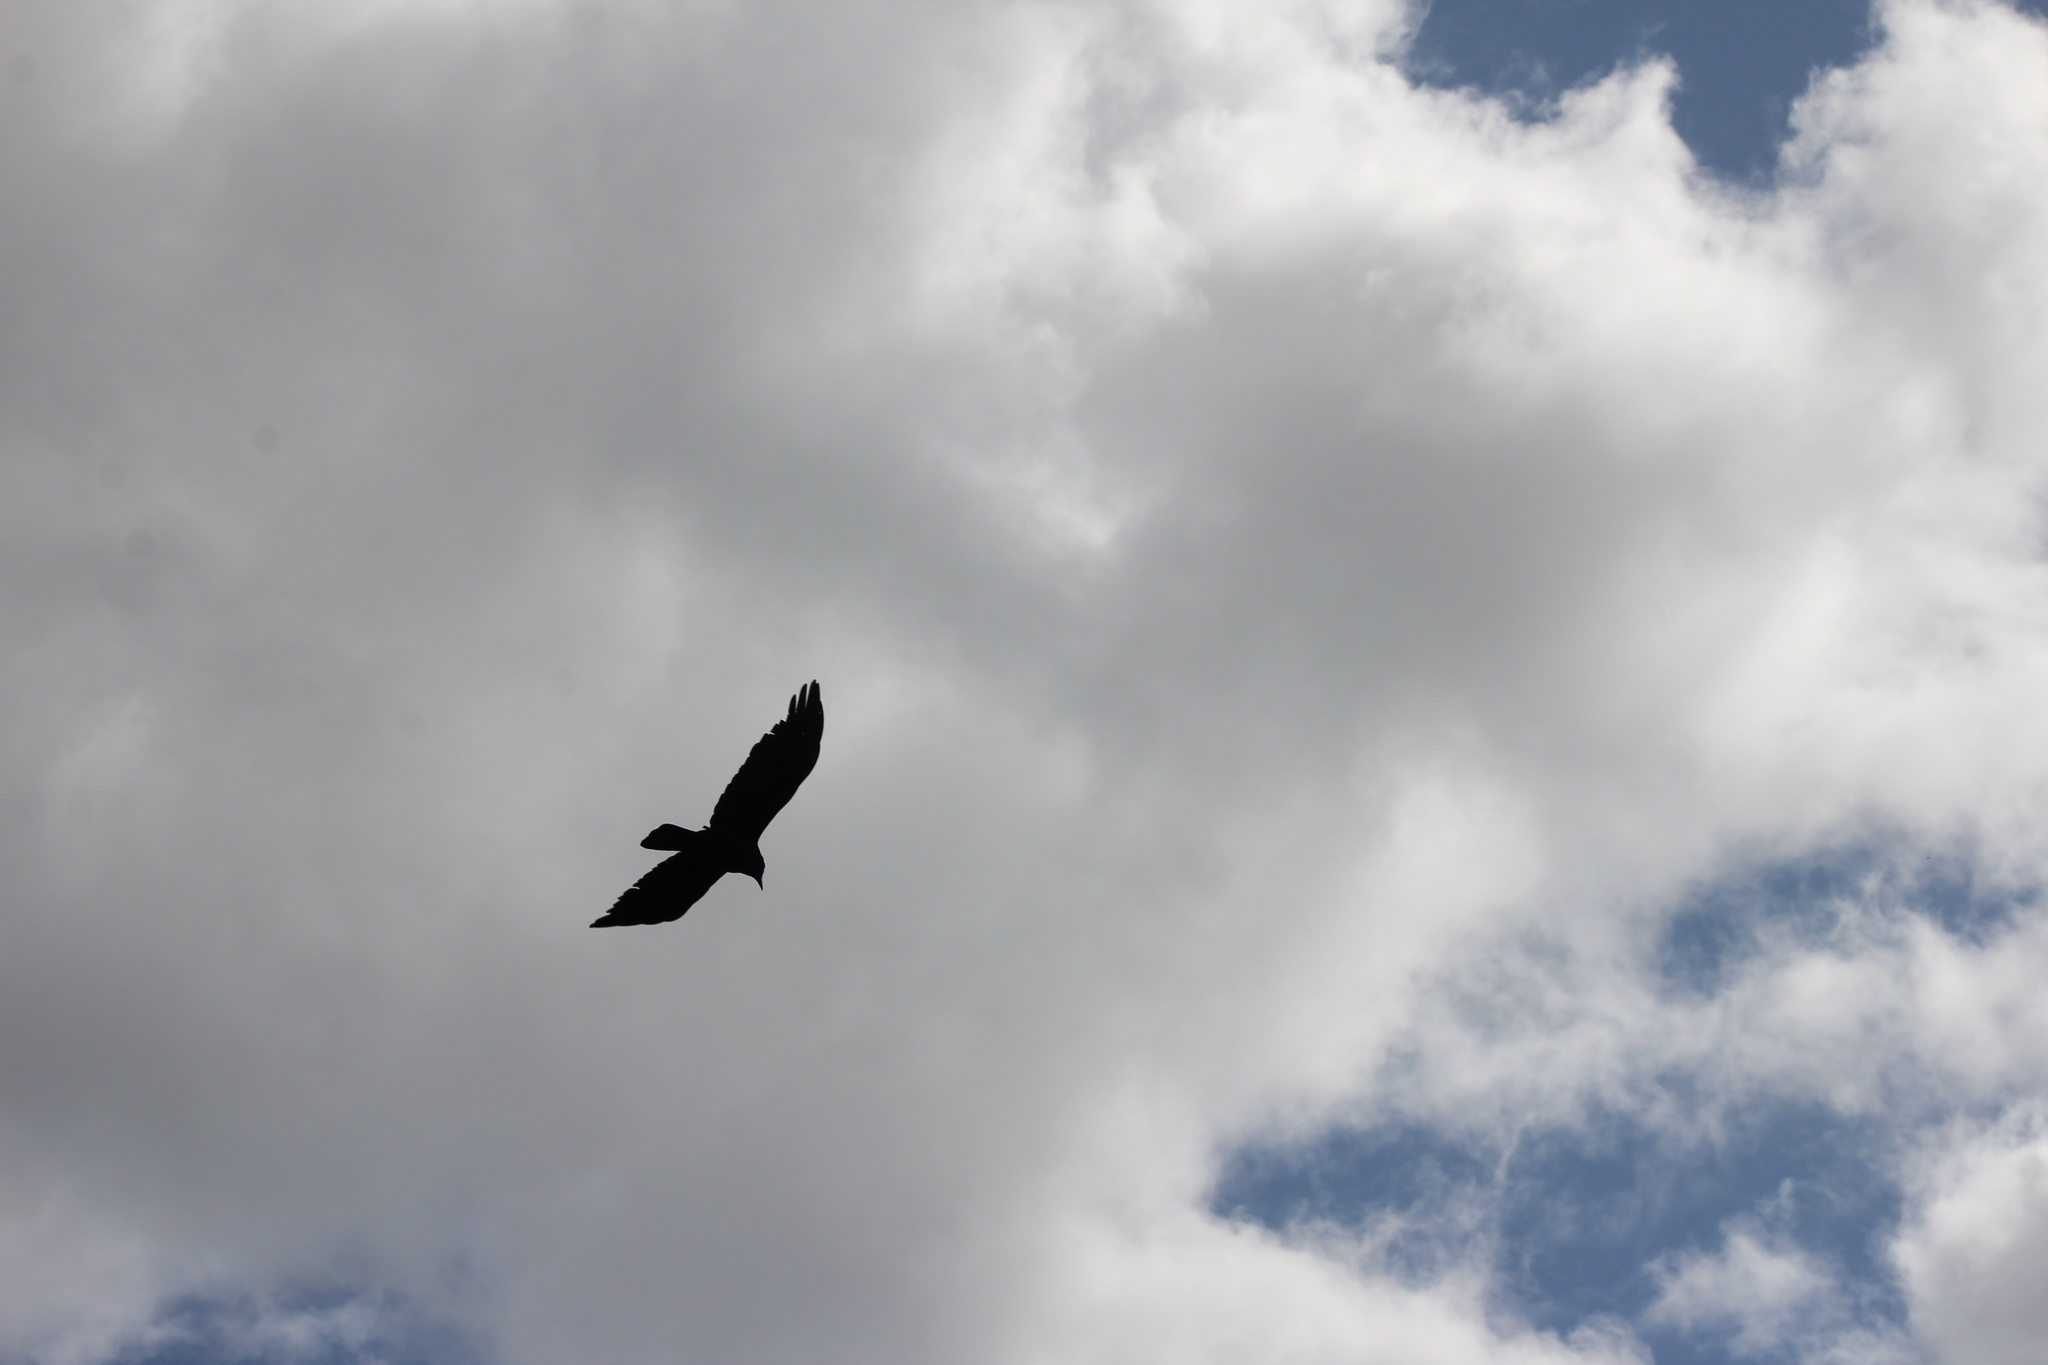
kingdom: Animalia
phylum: Chordata
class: Aves
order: Passeriformes
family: Corvidae
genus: Corvus
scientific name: Corvus brachyrhynchos
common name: American crow
